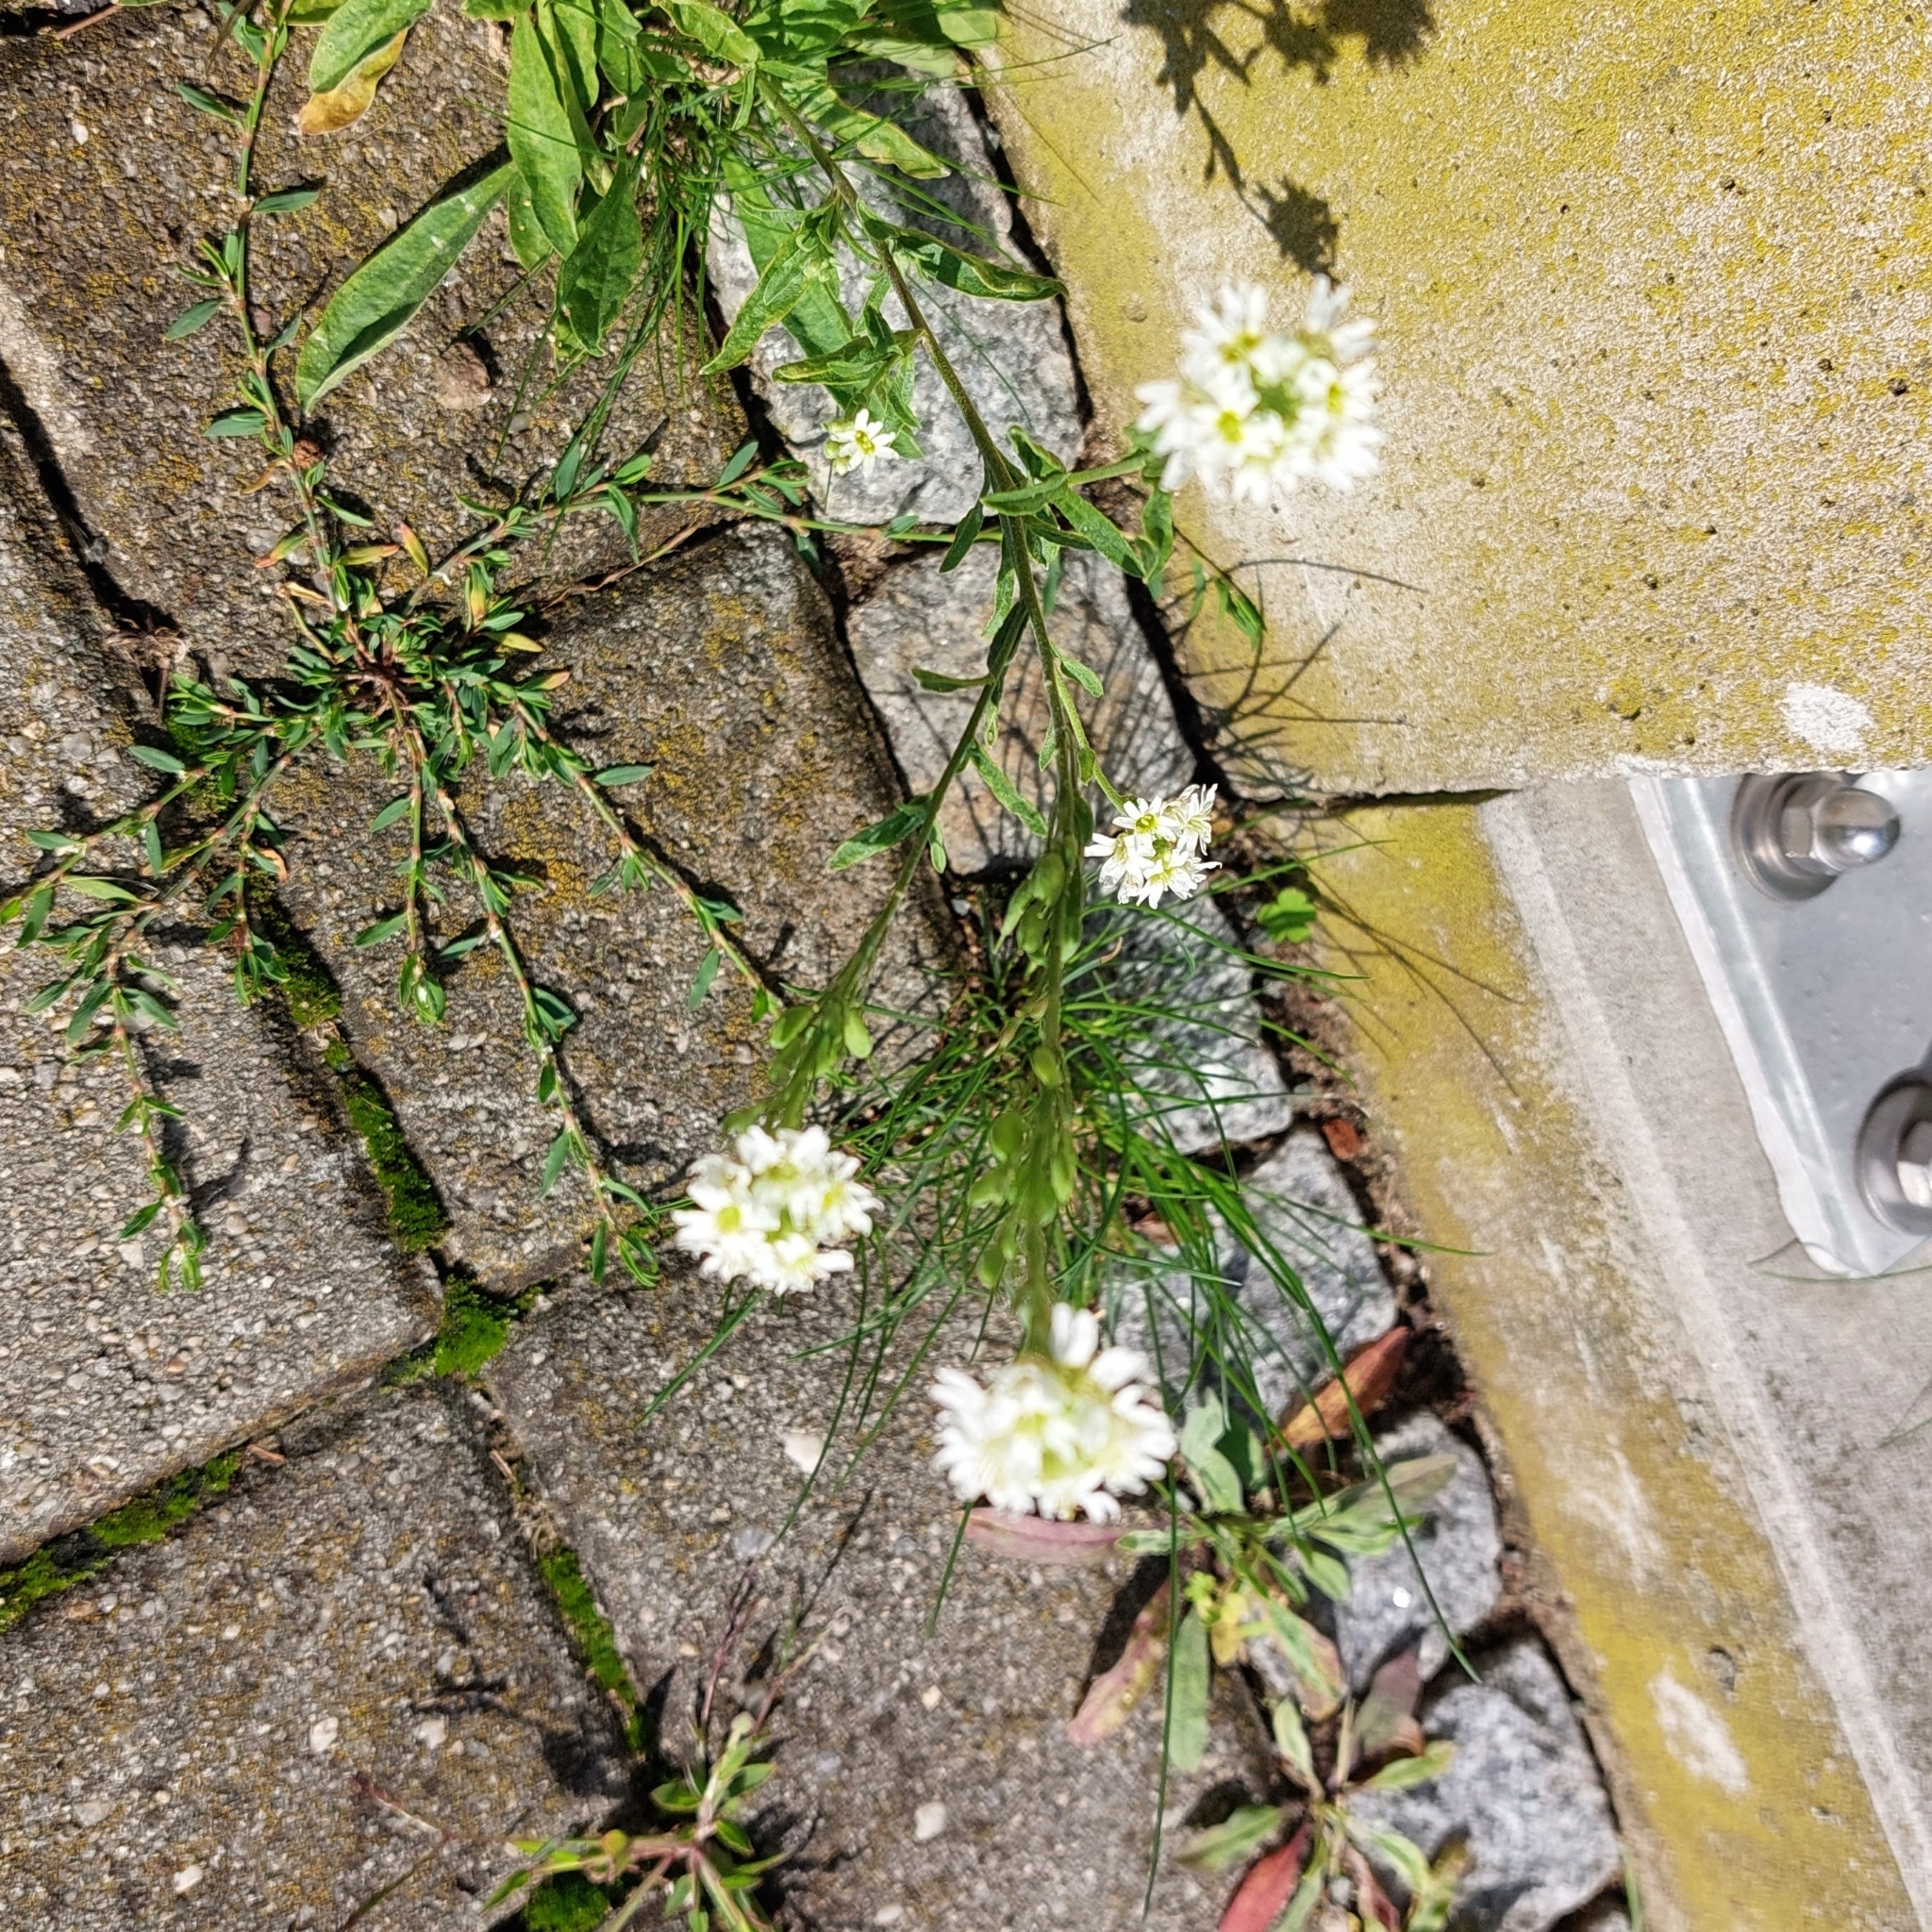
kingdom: Plantae
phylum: Tracheophyta
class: Magnoliopsida
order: Brassicales
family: Brassicaceae
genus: Berteroa
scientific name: Berteroa incana
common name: Hoary alison
